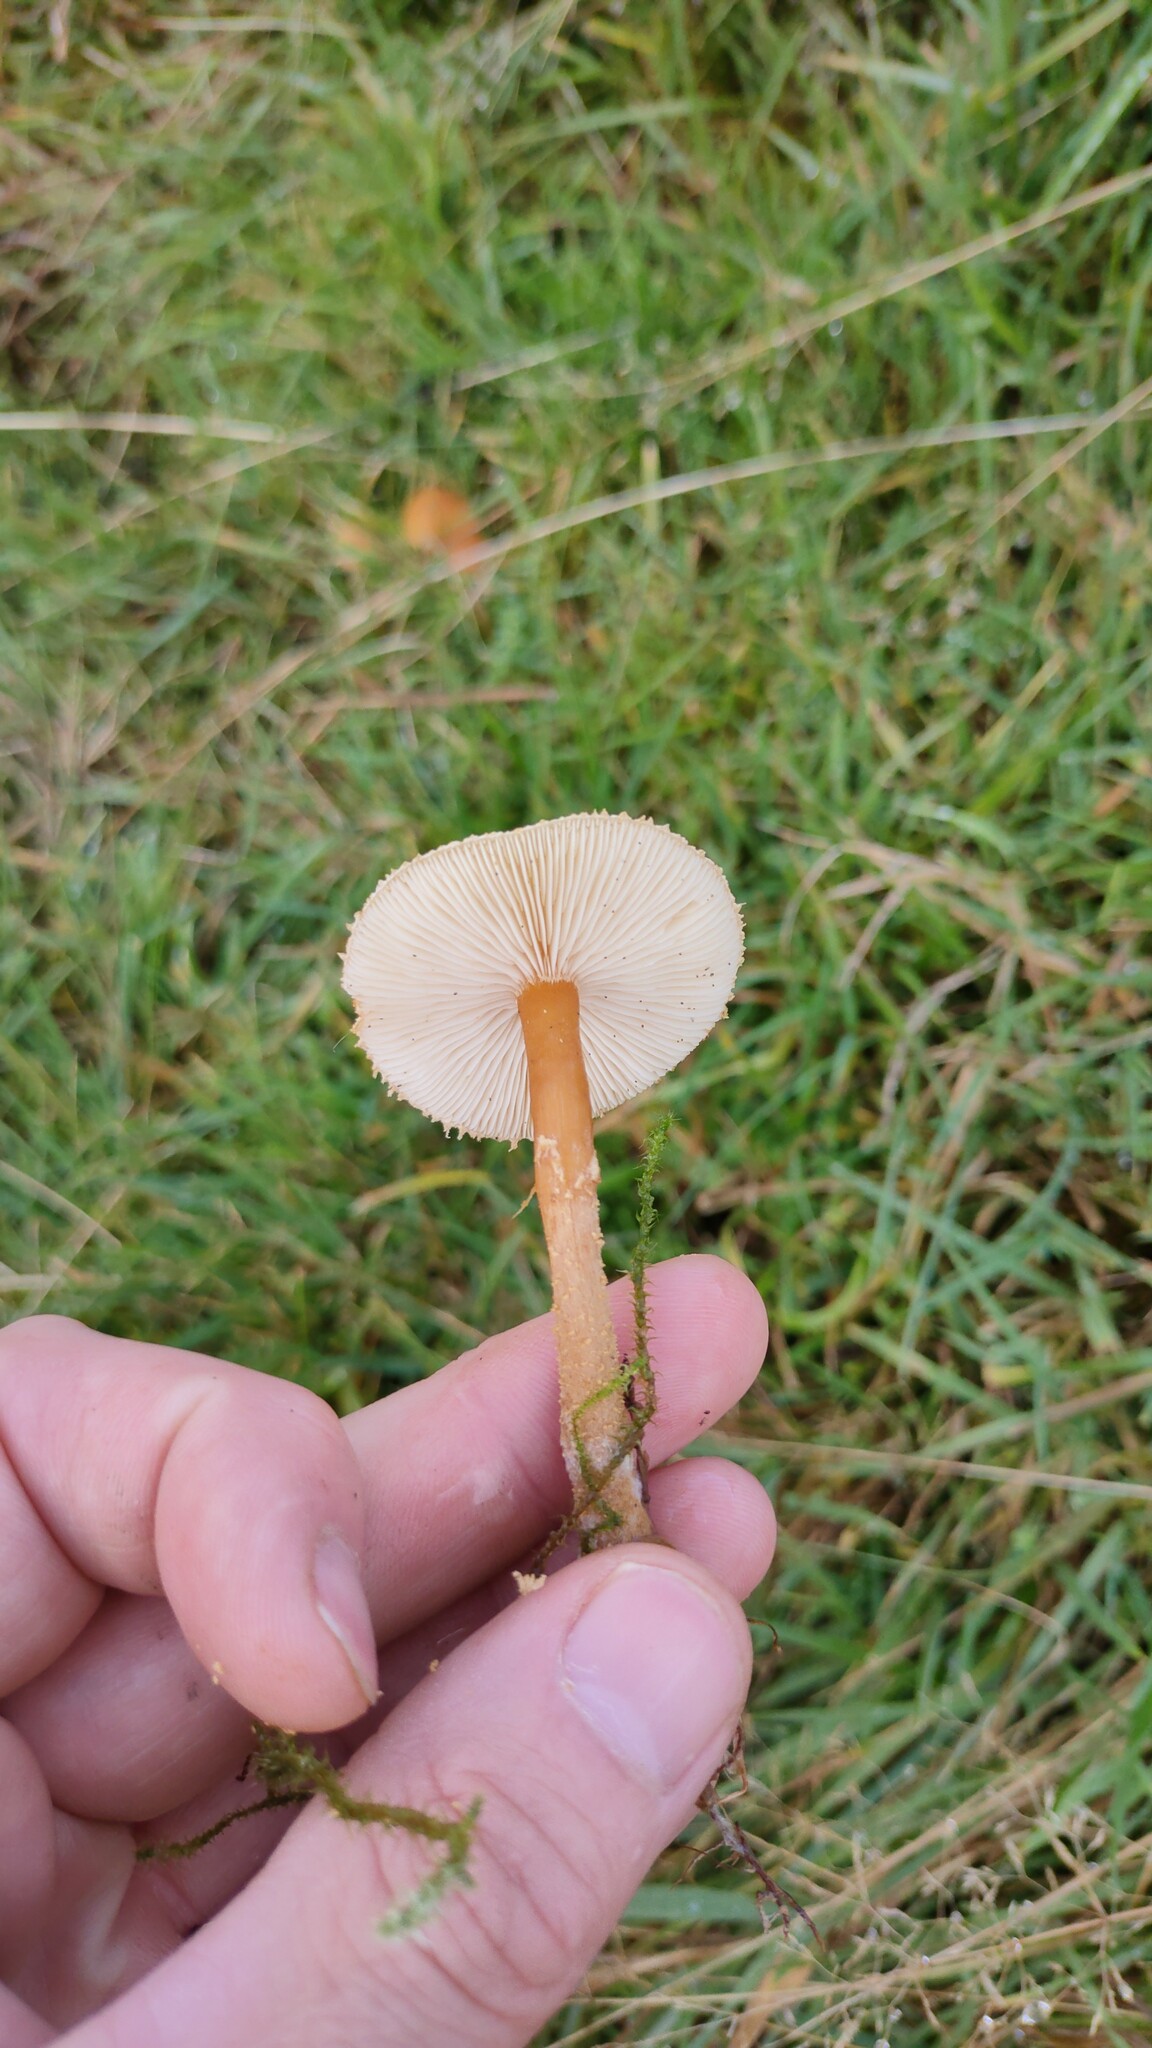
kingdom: Fungi
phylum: Basidiomycota
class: Agaricomycetes
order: Agaricales
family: Tricholomataceae
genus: Cystoderma
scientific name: Cystoderma amianthinum
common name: Earthy powdercap
